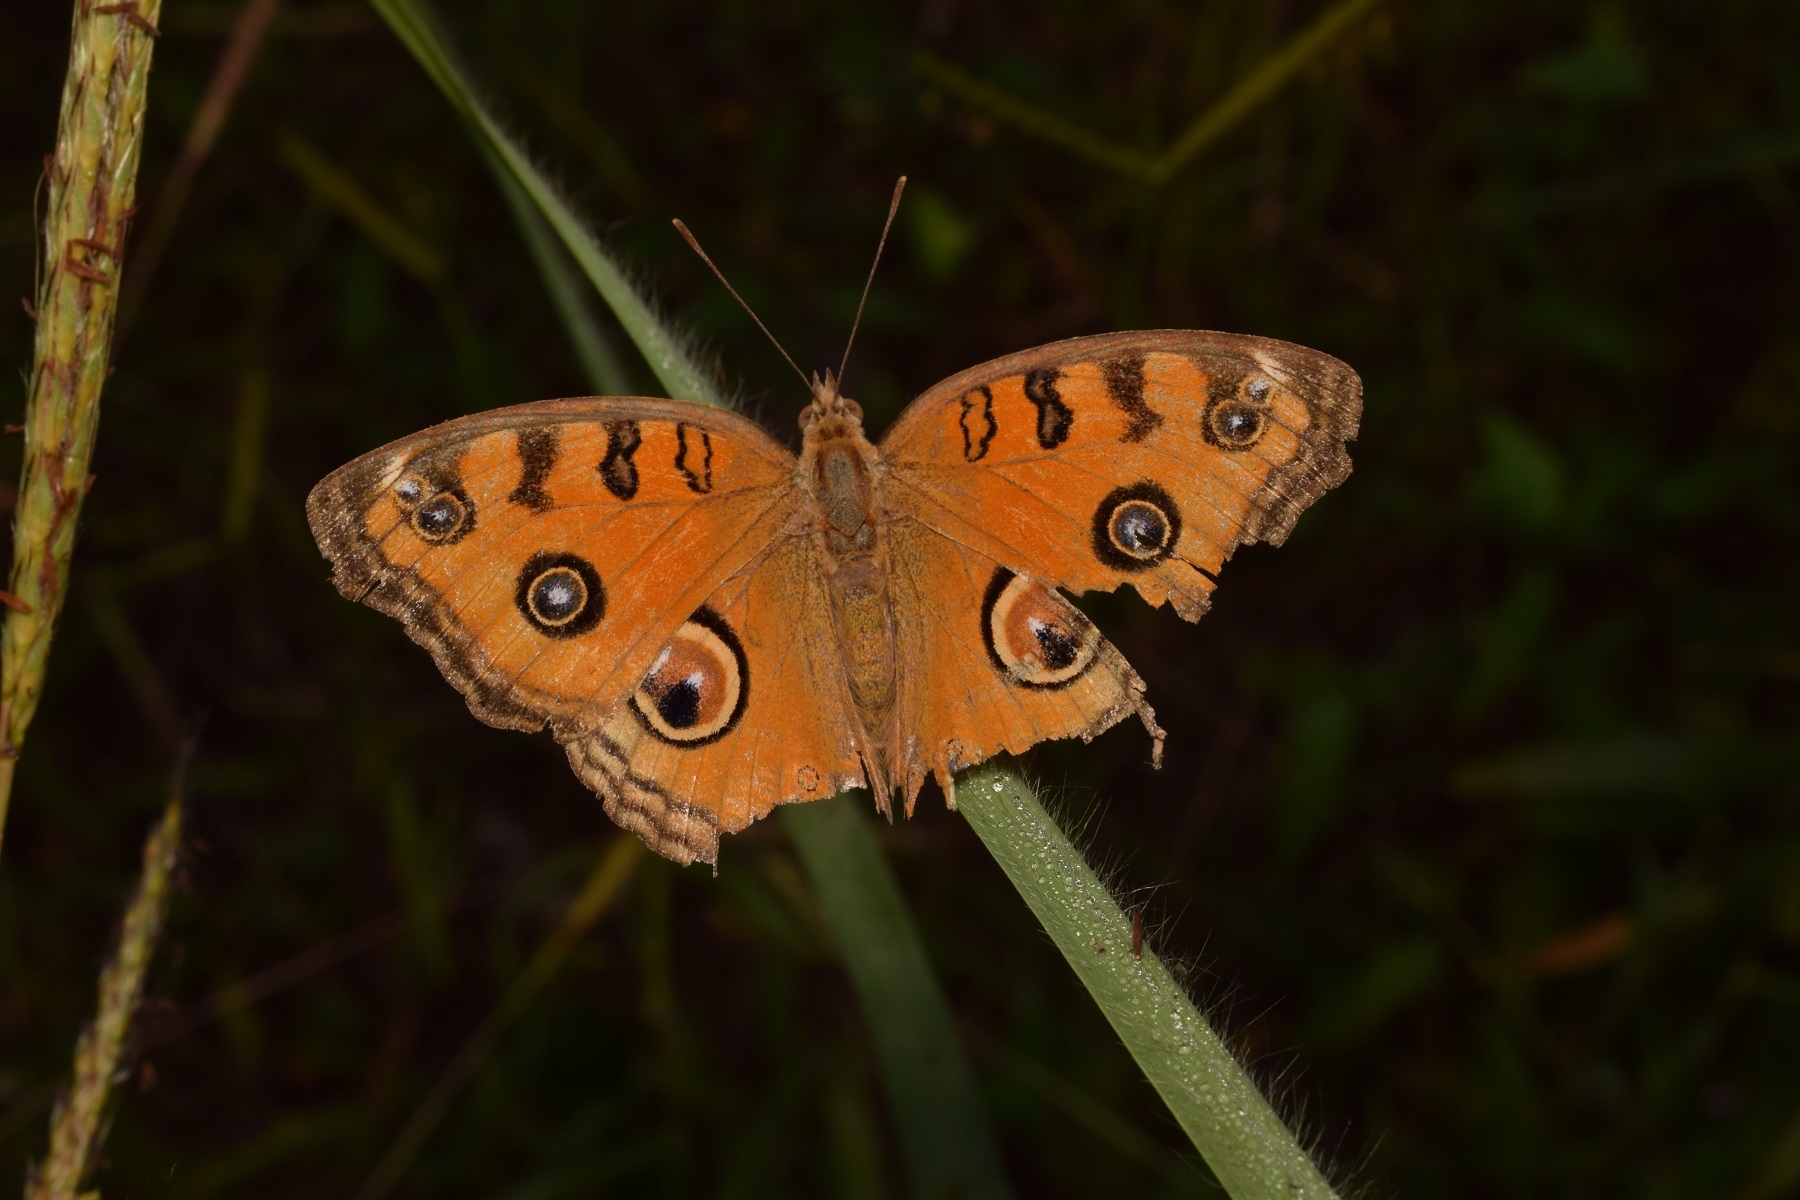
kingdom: Animalia
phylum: Arthropoda
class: Insecta
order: Lepidoptera
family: Nymphalidae
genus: Junonia
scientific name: Junonia almana
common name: Peacock pansy
